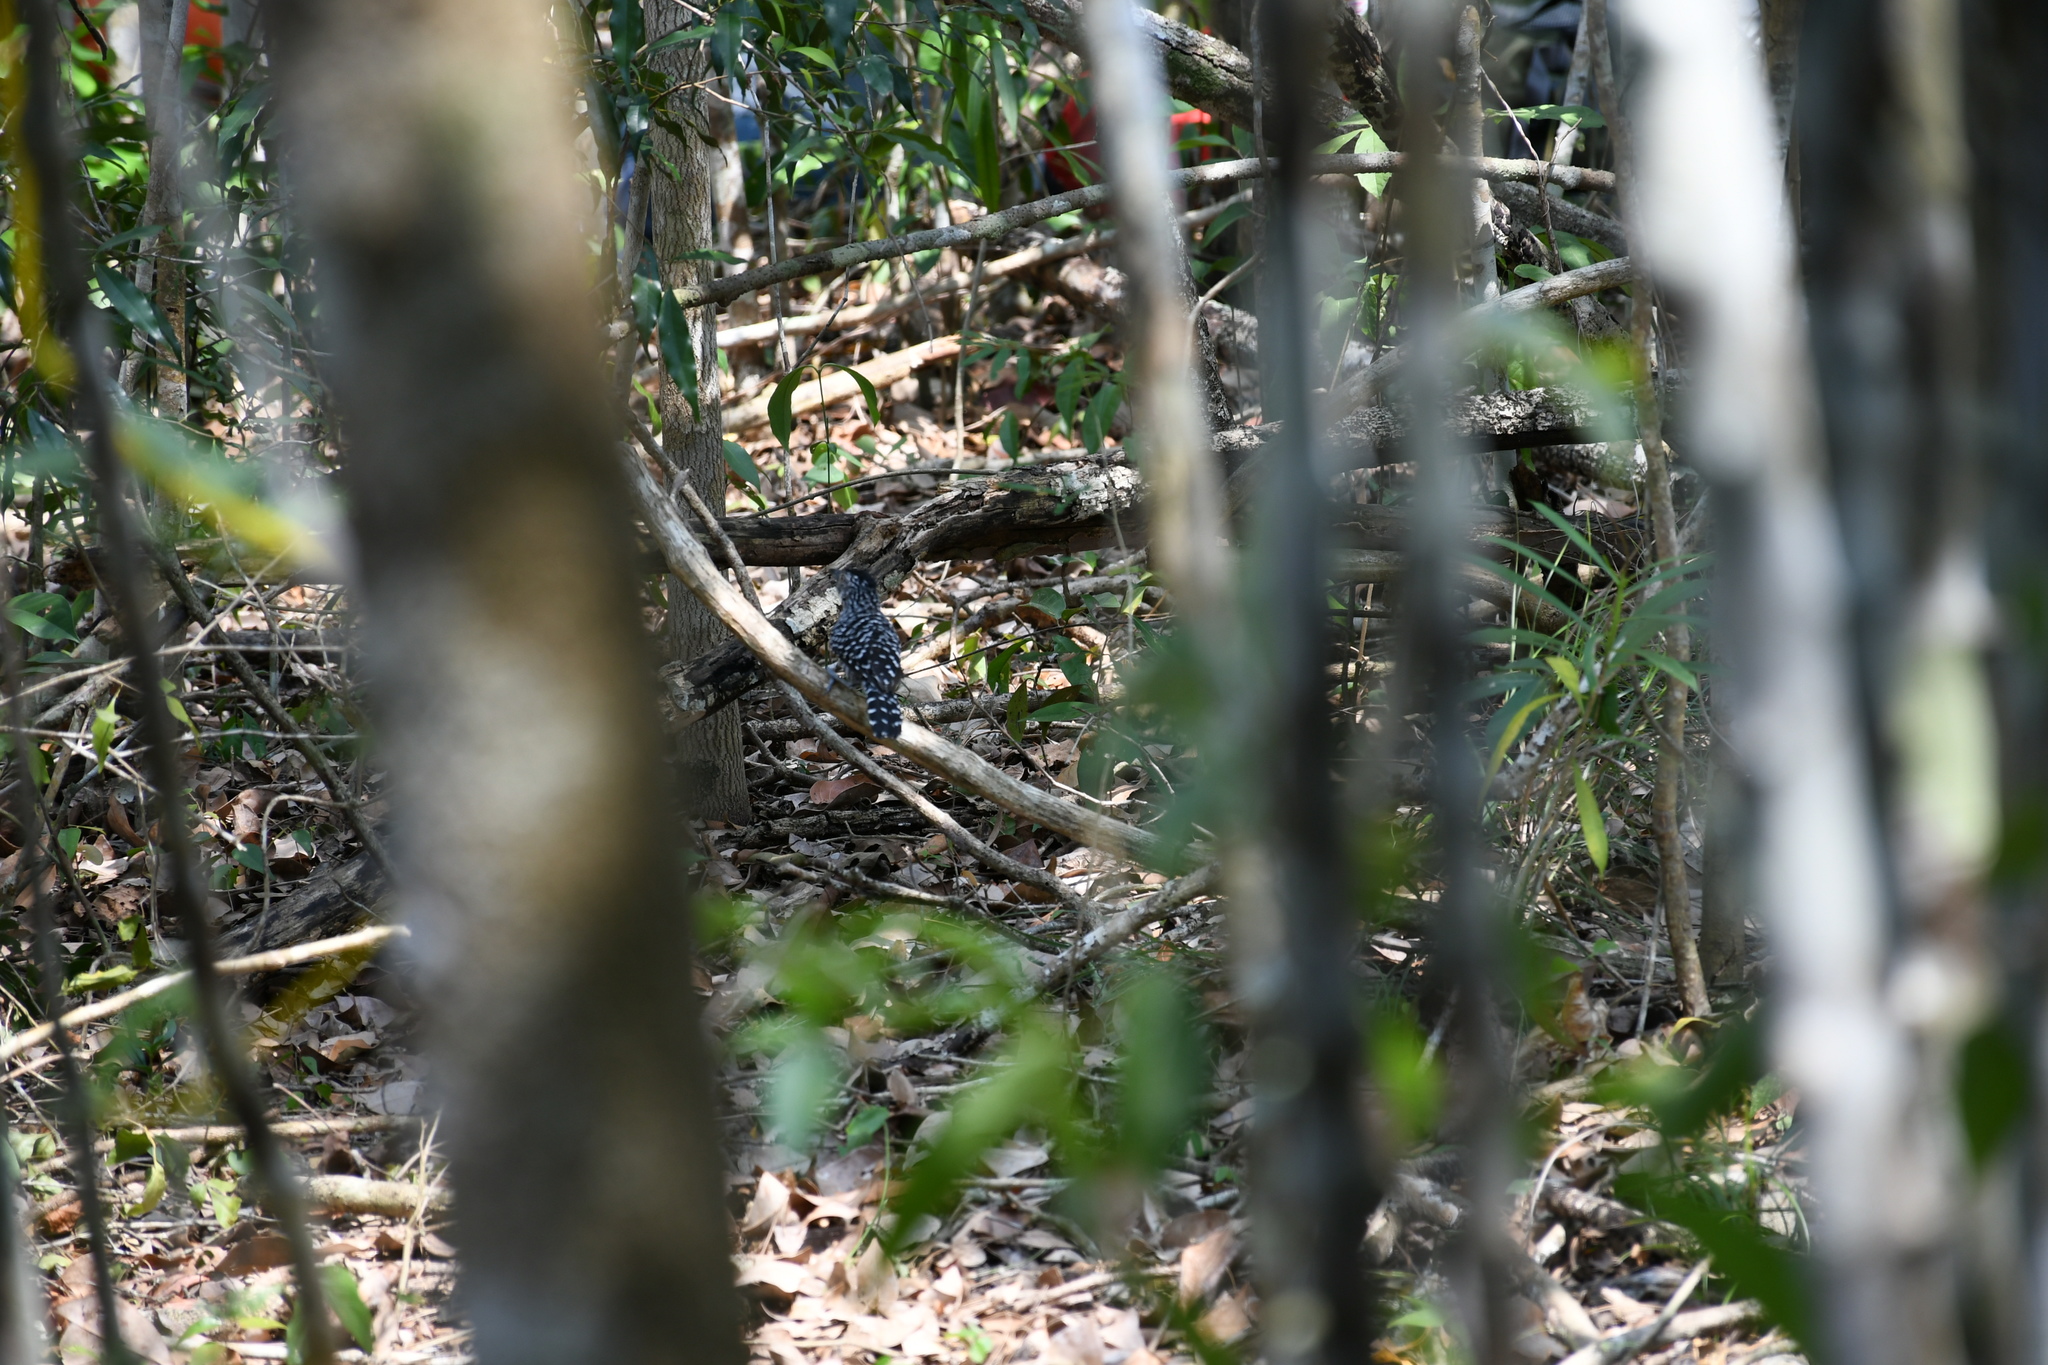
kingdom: Animalia
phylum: Chordata
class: Aves
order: Passeriformes
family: Thamnophilidae
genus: Thamnophilus
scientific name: Thamnophilus doliatus
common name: Barred antshrike
